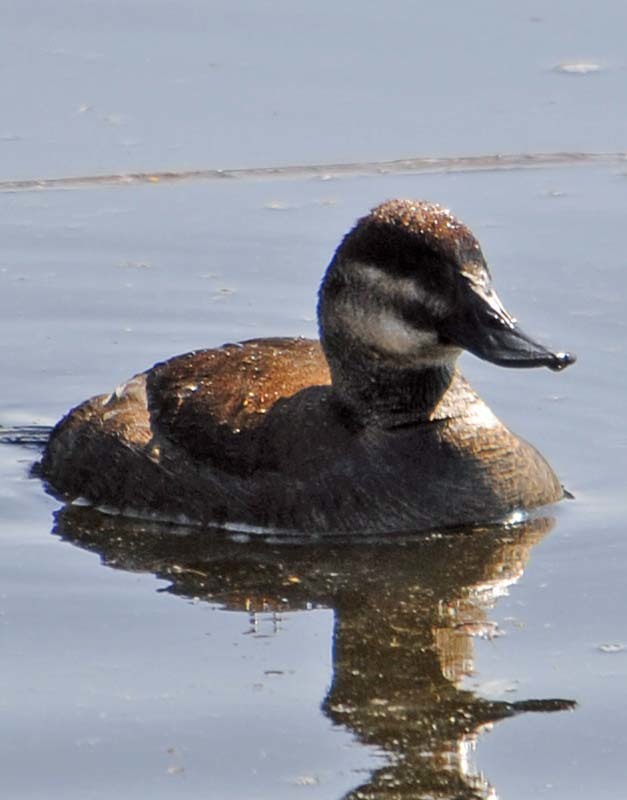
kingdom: Animalia
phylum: Chordata
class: Aves
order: Anseriformes
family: Anatidae
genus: Oxyura
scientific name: Oxyura jamaicensis
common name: Ruddy duck
